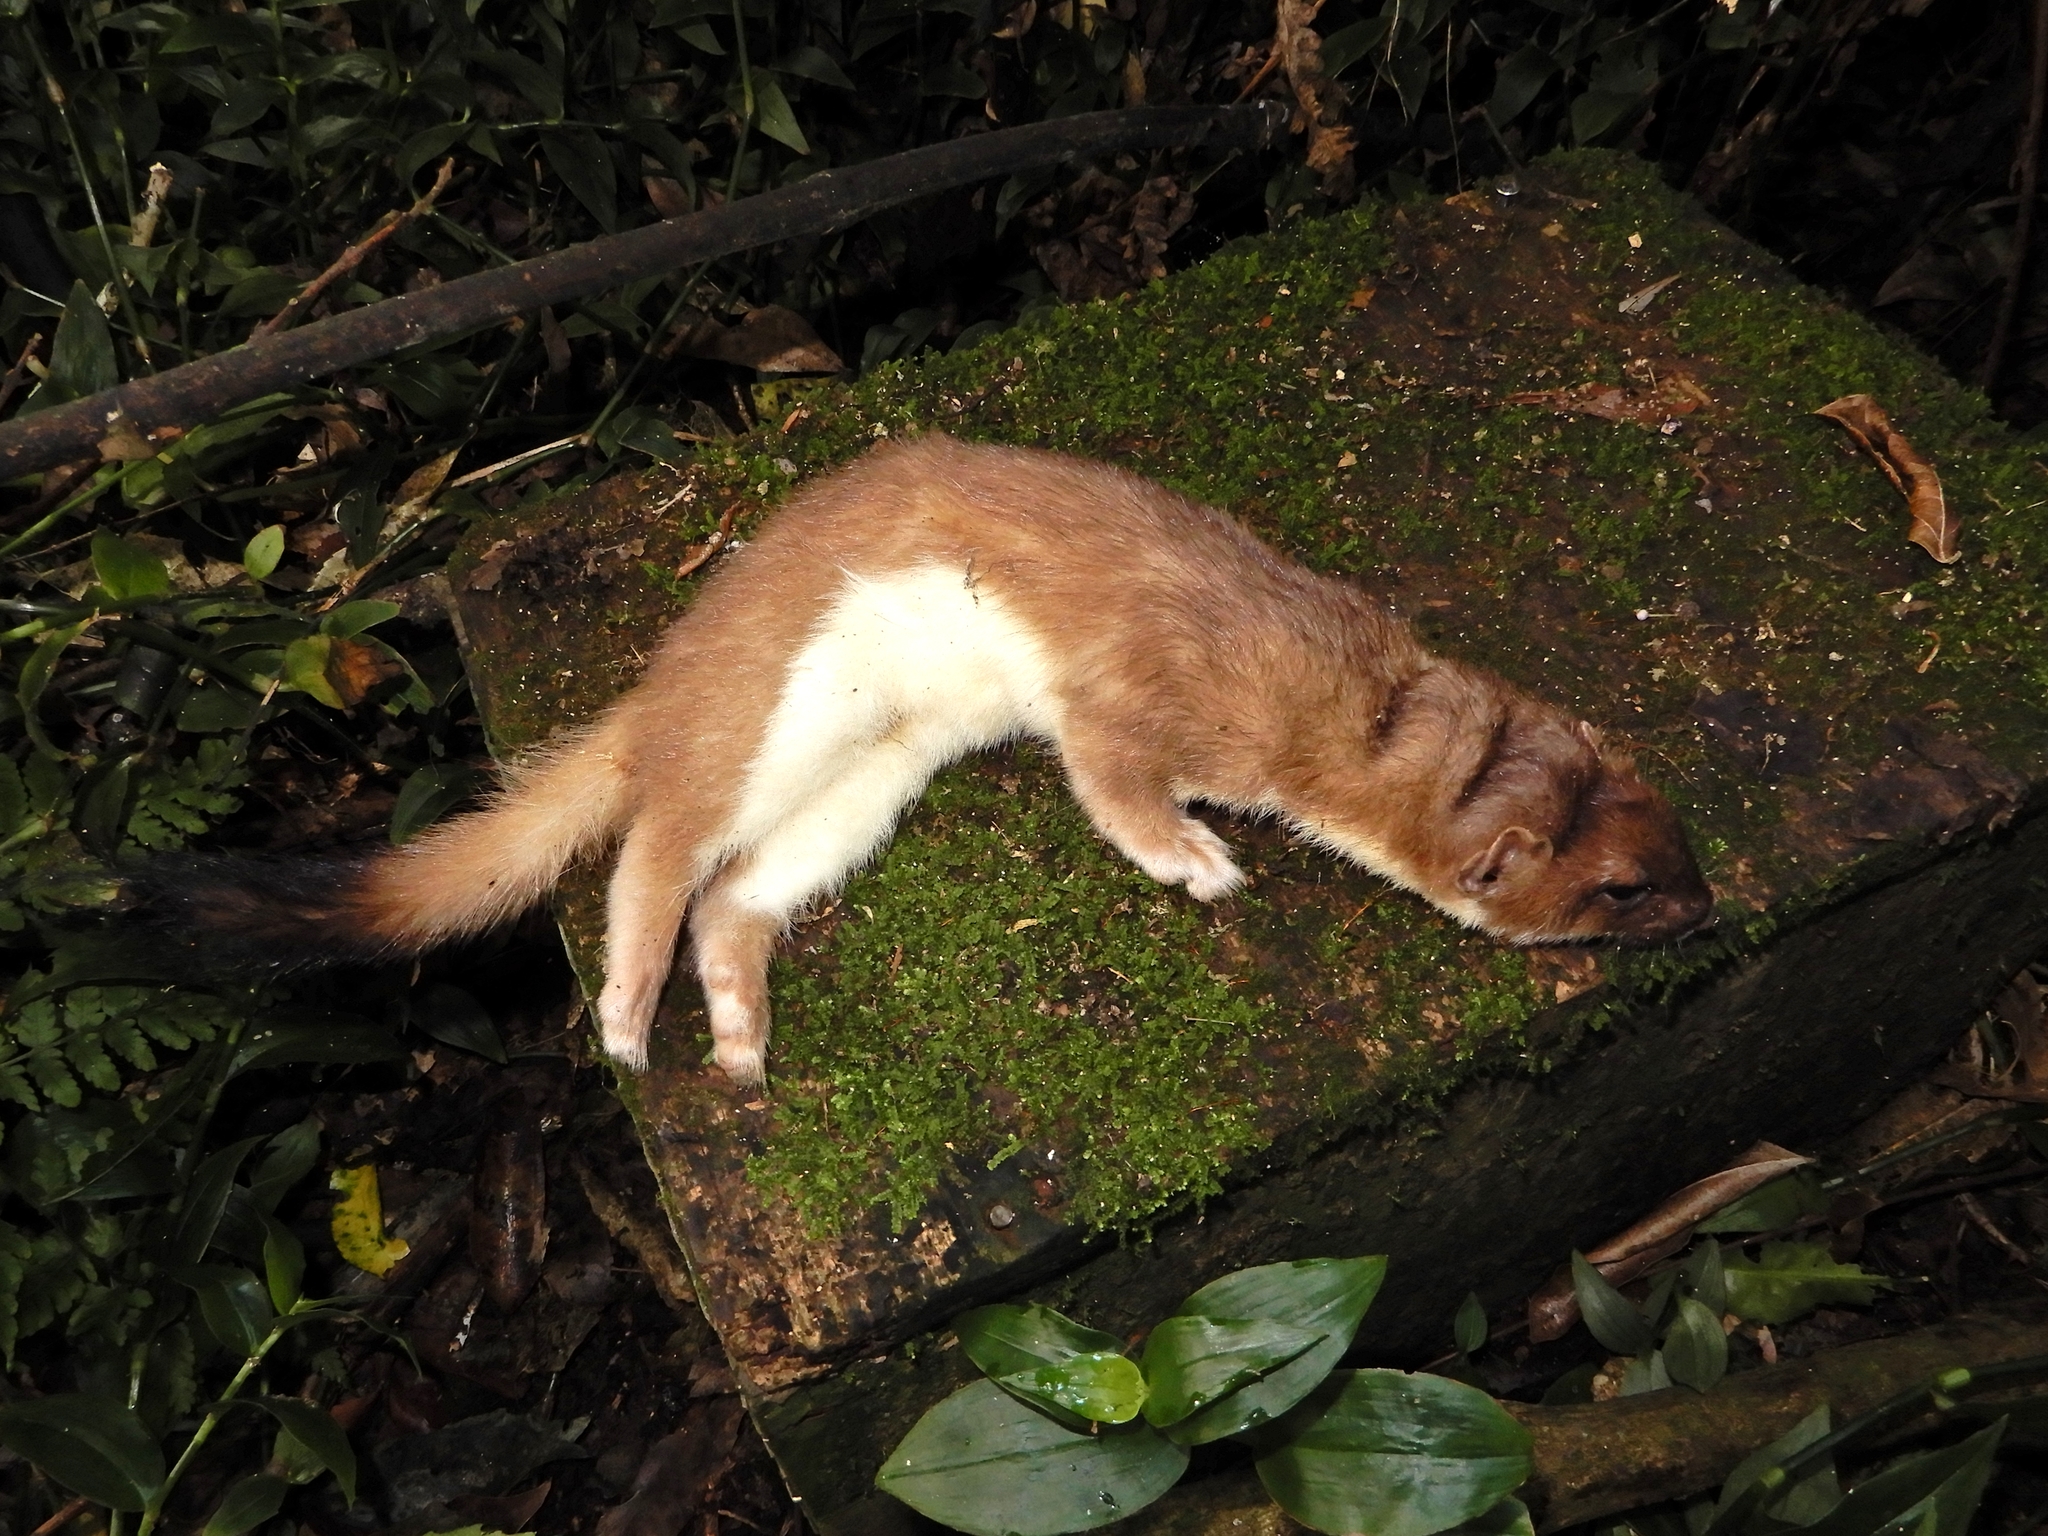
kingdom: Animalia
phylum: Chordata
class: Mammalia
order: Carnivora
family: Mustelidae
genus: Mustela
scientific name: Mustela erminea
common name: Stoat
